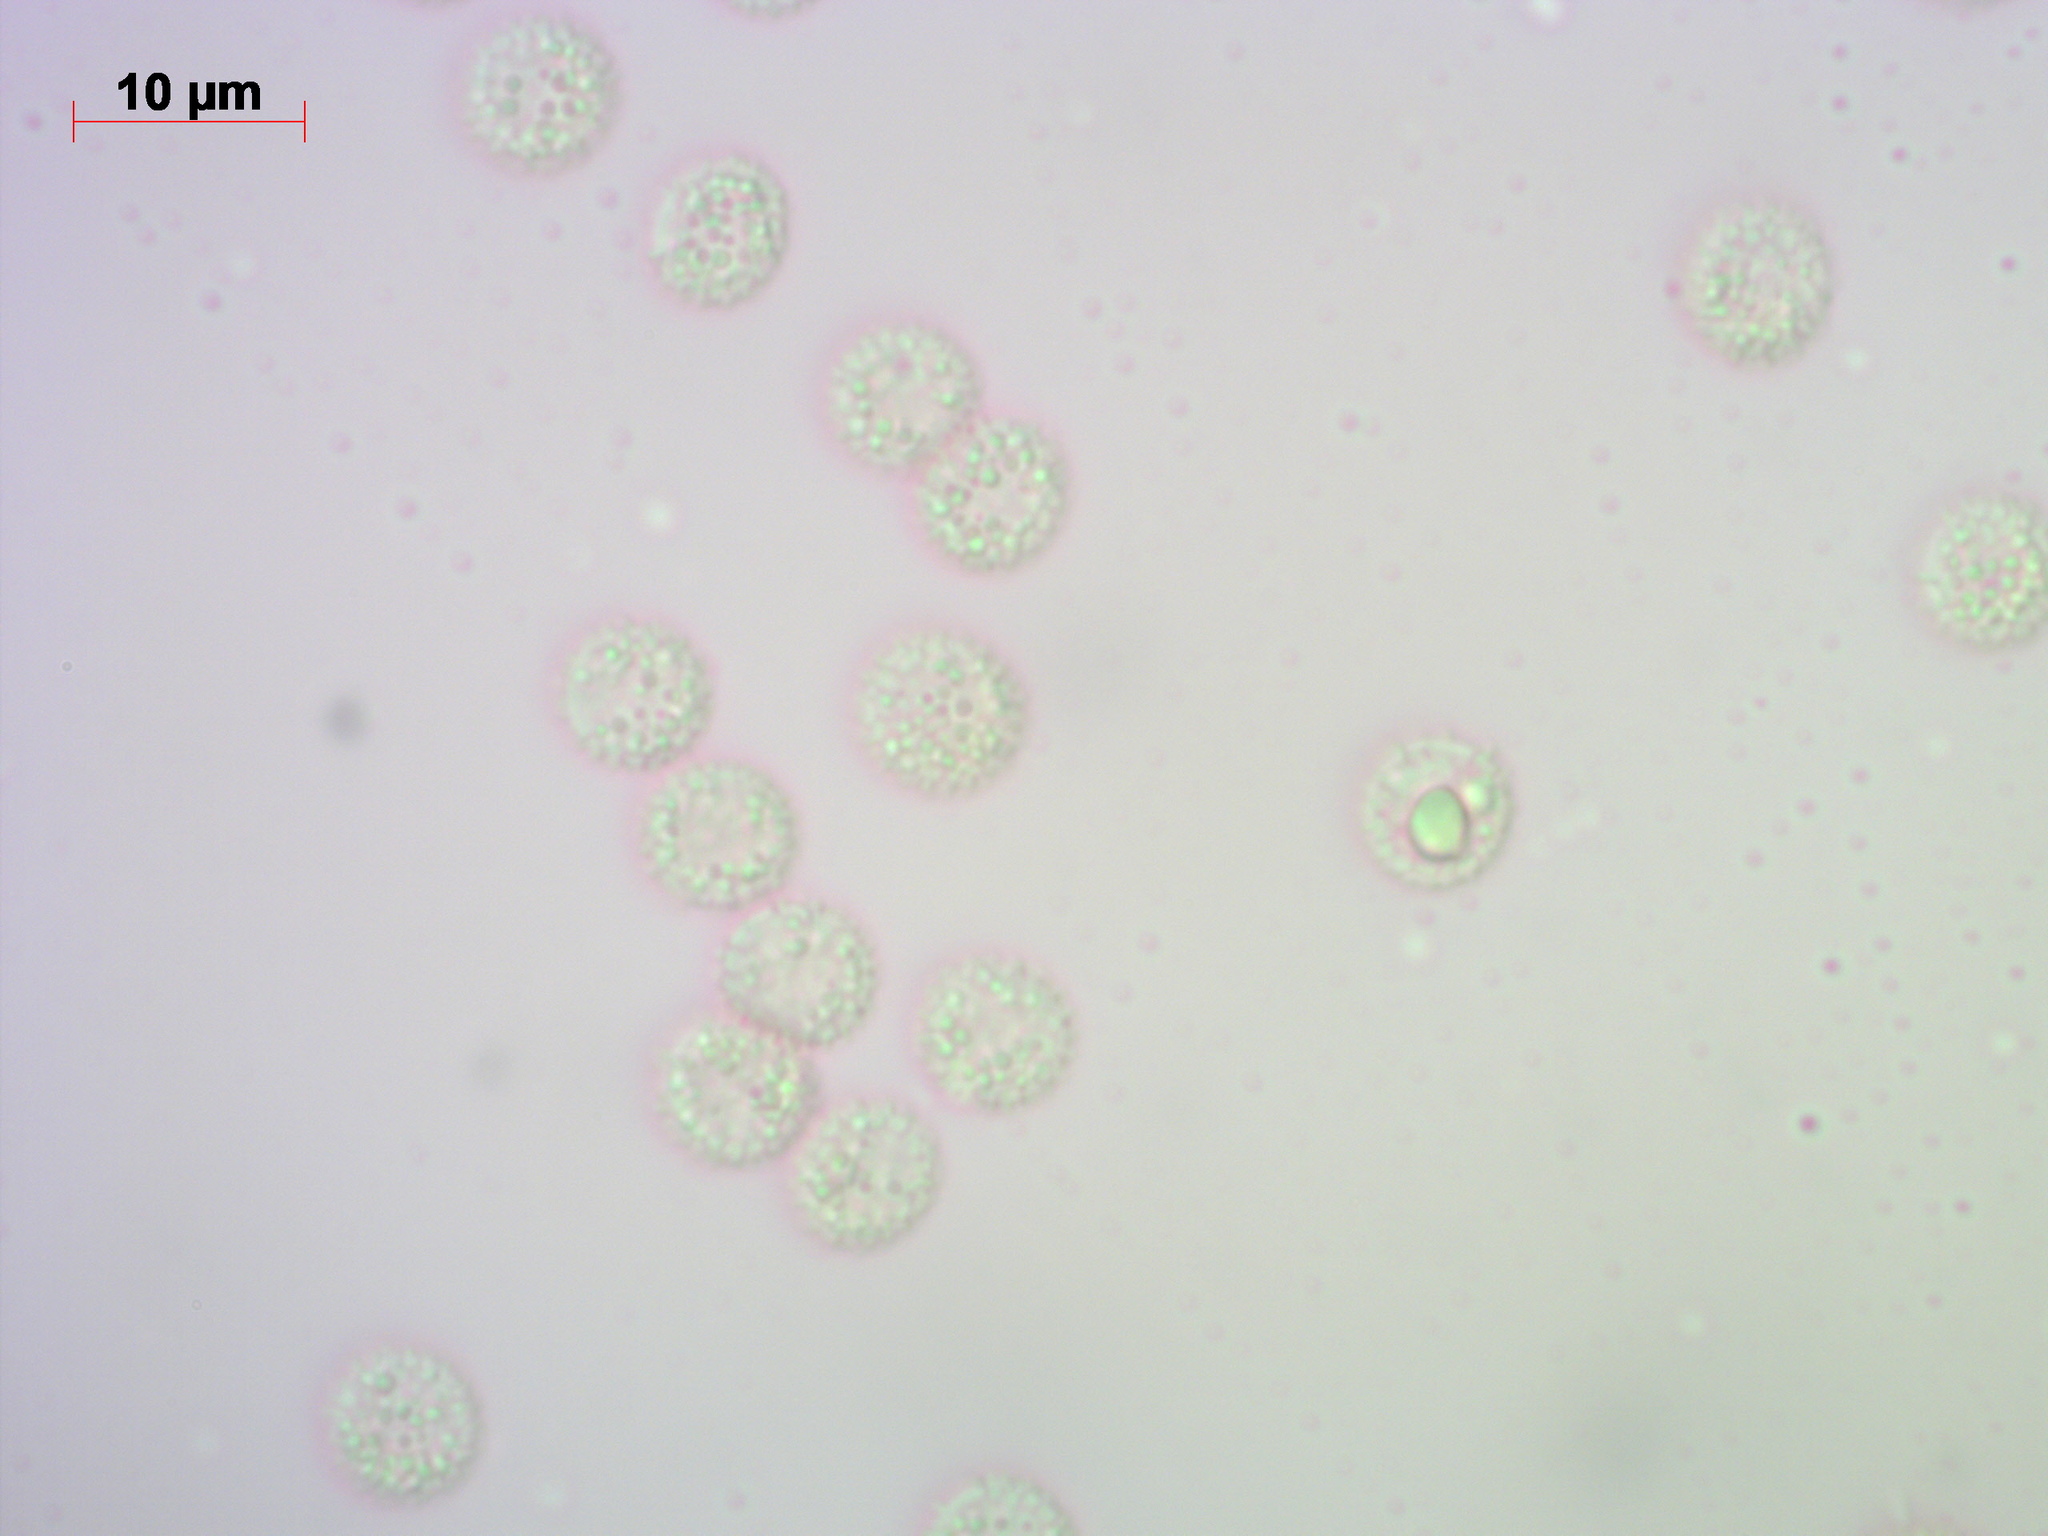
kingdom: Protozoa
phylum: Mycetozoa
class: Myxomycetes
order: Cribrariales
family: Tubiferaceae
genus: Lycogala
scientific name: Lycogala epidendrum
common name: Wolf's milk
